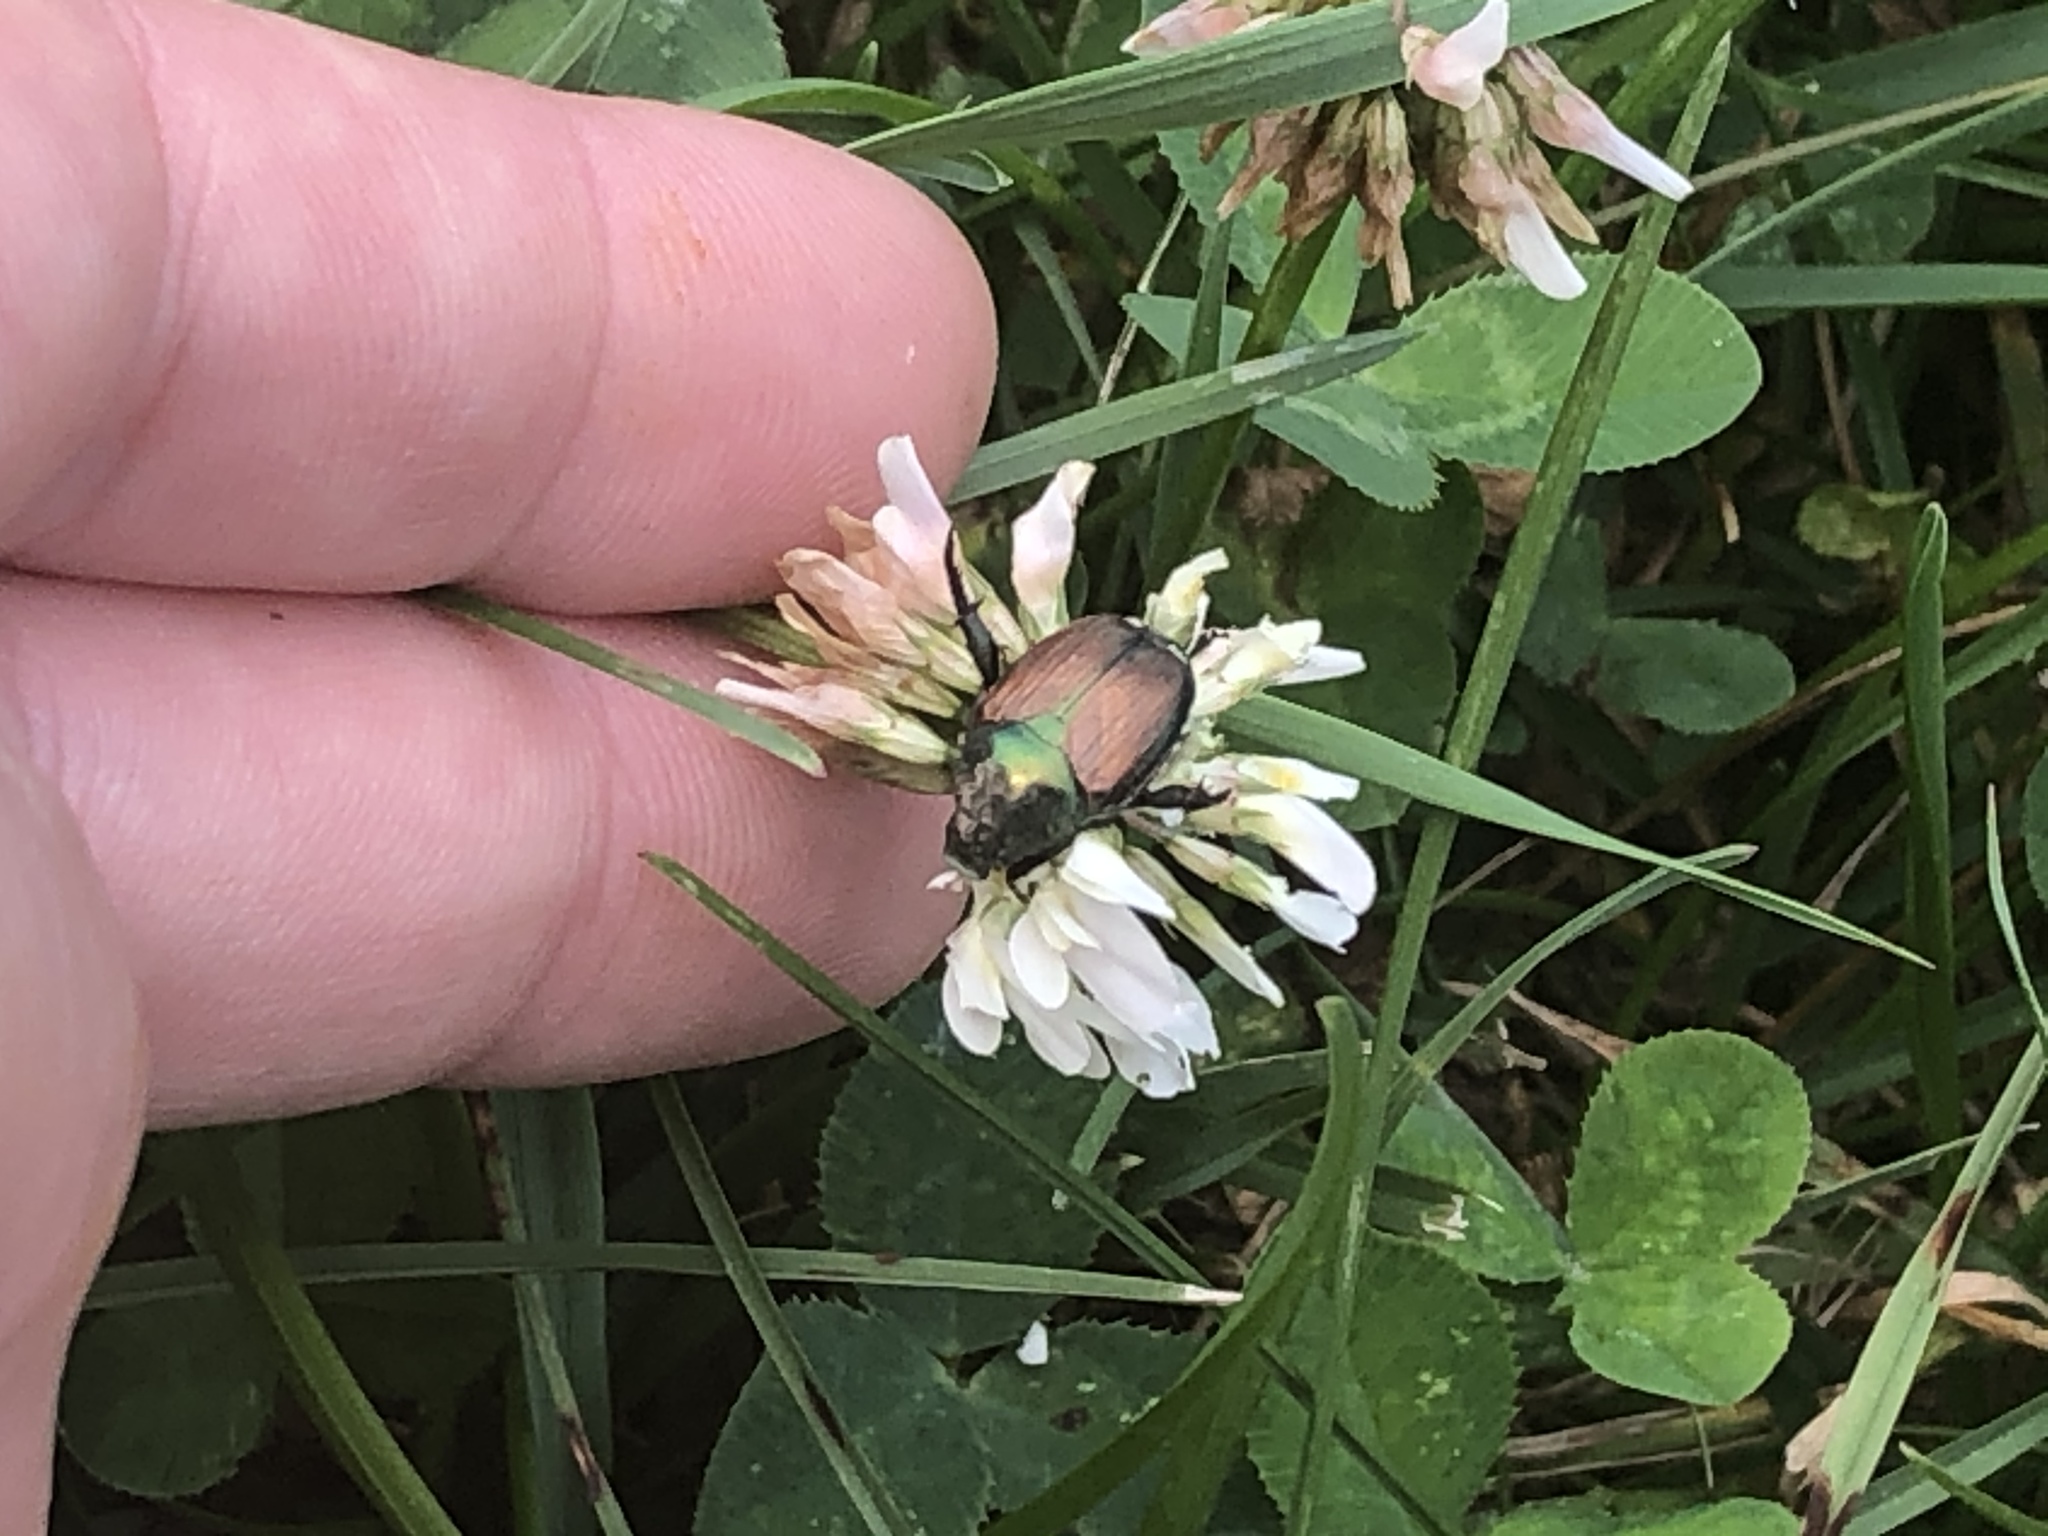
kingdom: Animalia
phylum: Arthropoda
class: Insecta
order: Coleoptera
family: Scarabaeidae
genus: Popillia
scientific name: Popillia japonica
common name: Japanese beetle
